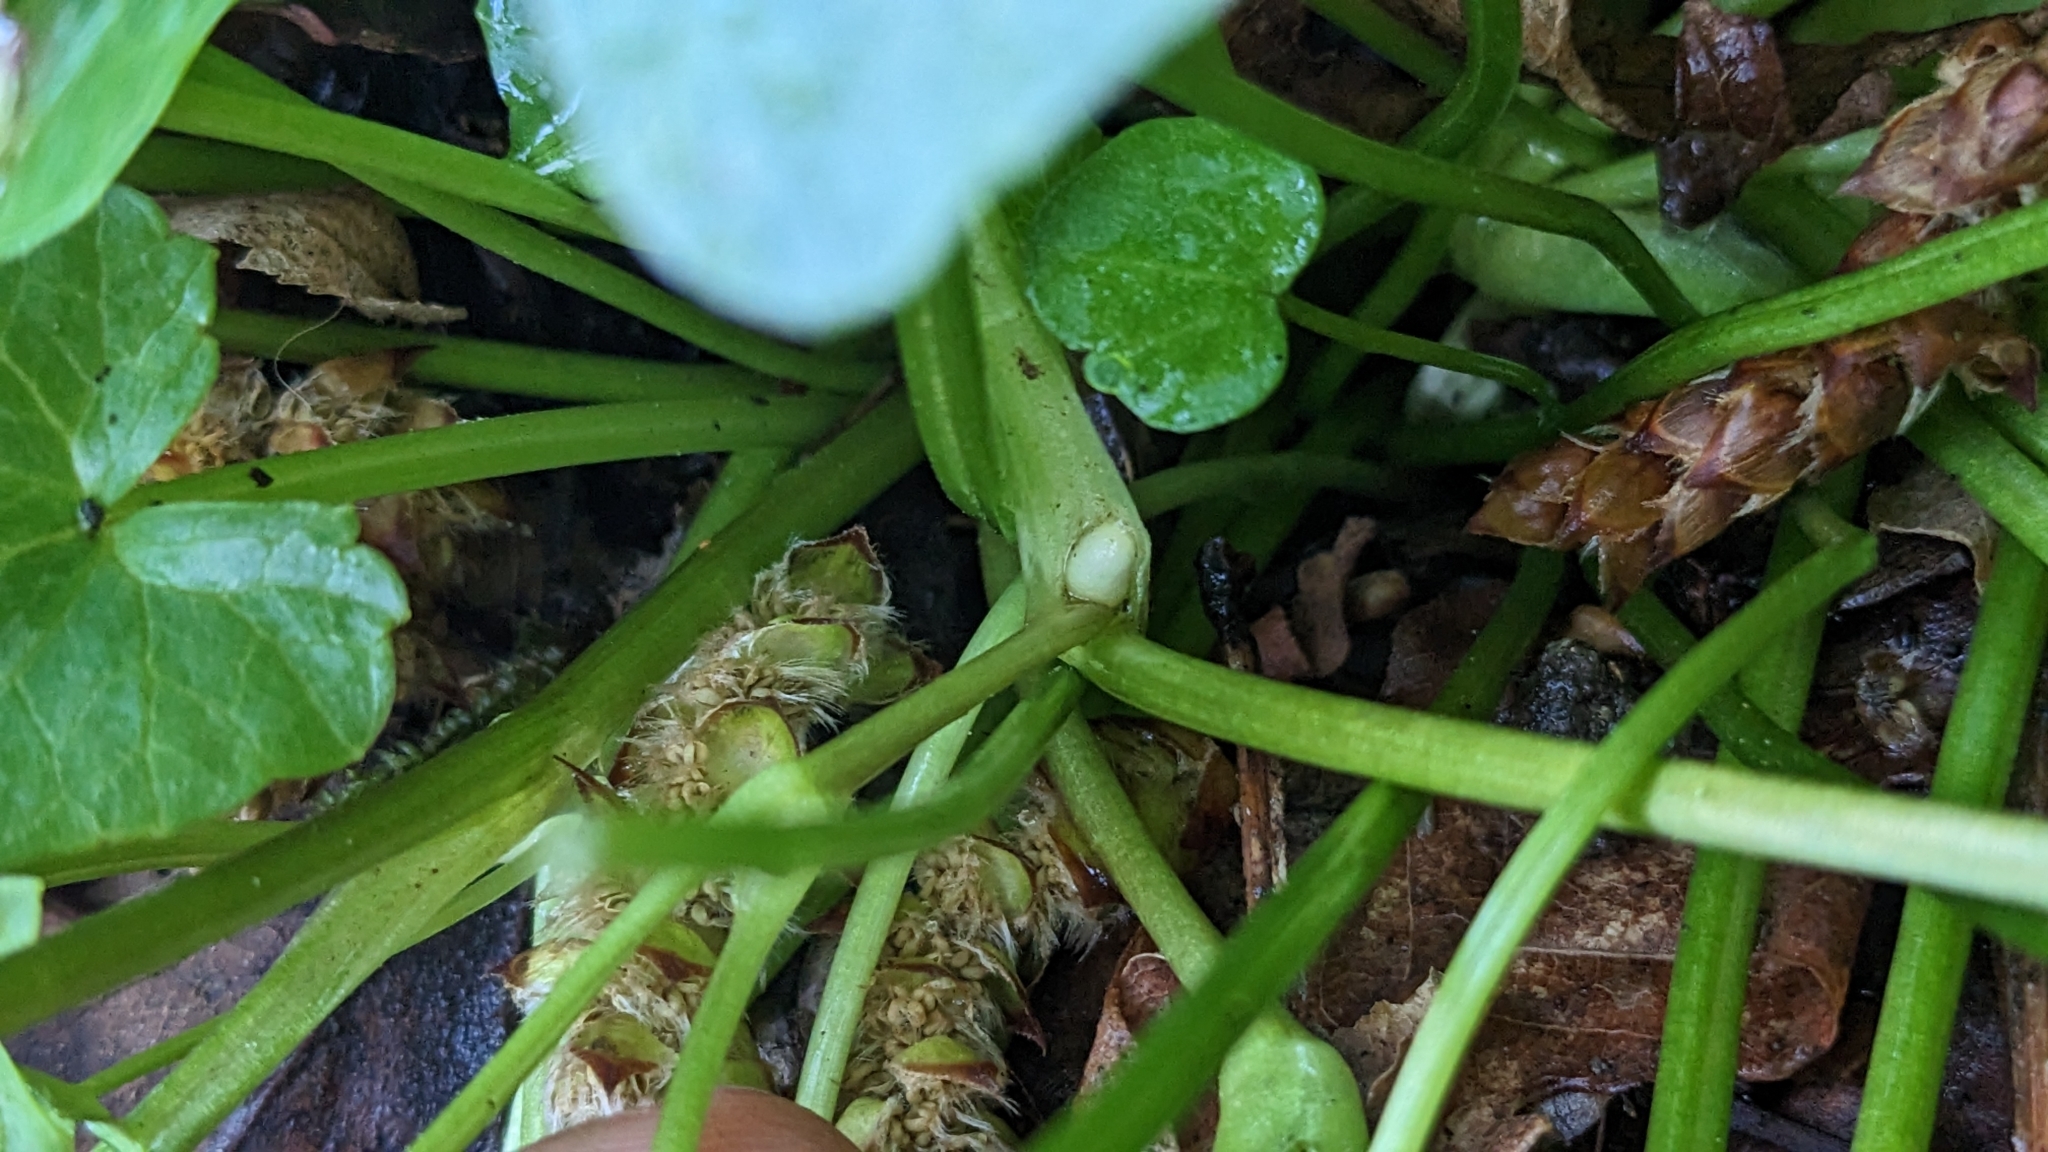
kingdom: Plantae
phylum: Tracheophyta
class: Magnoliopsida
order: Ranunculales
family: Ranunculaceae
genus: Ficaria
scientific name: Ficaria verna
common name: Lesser celandine
